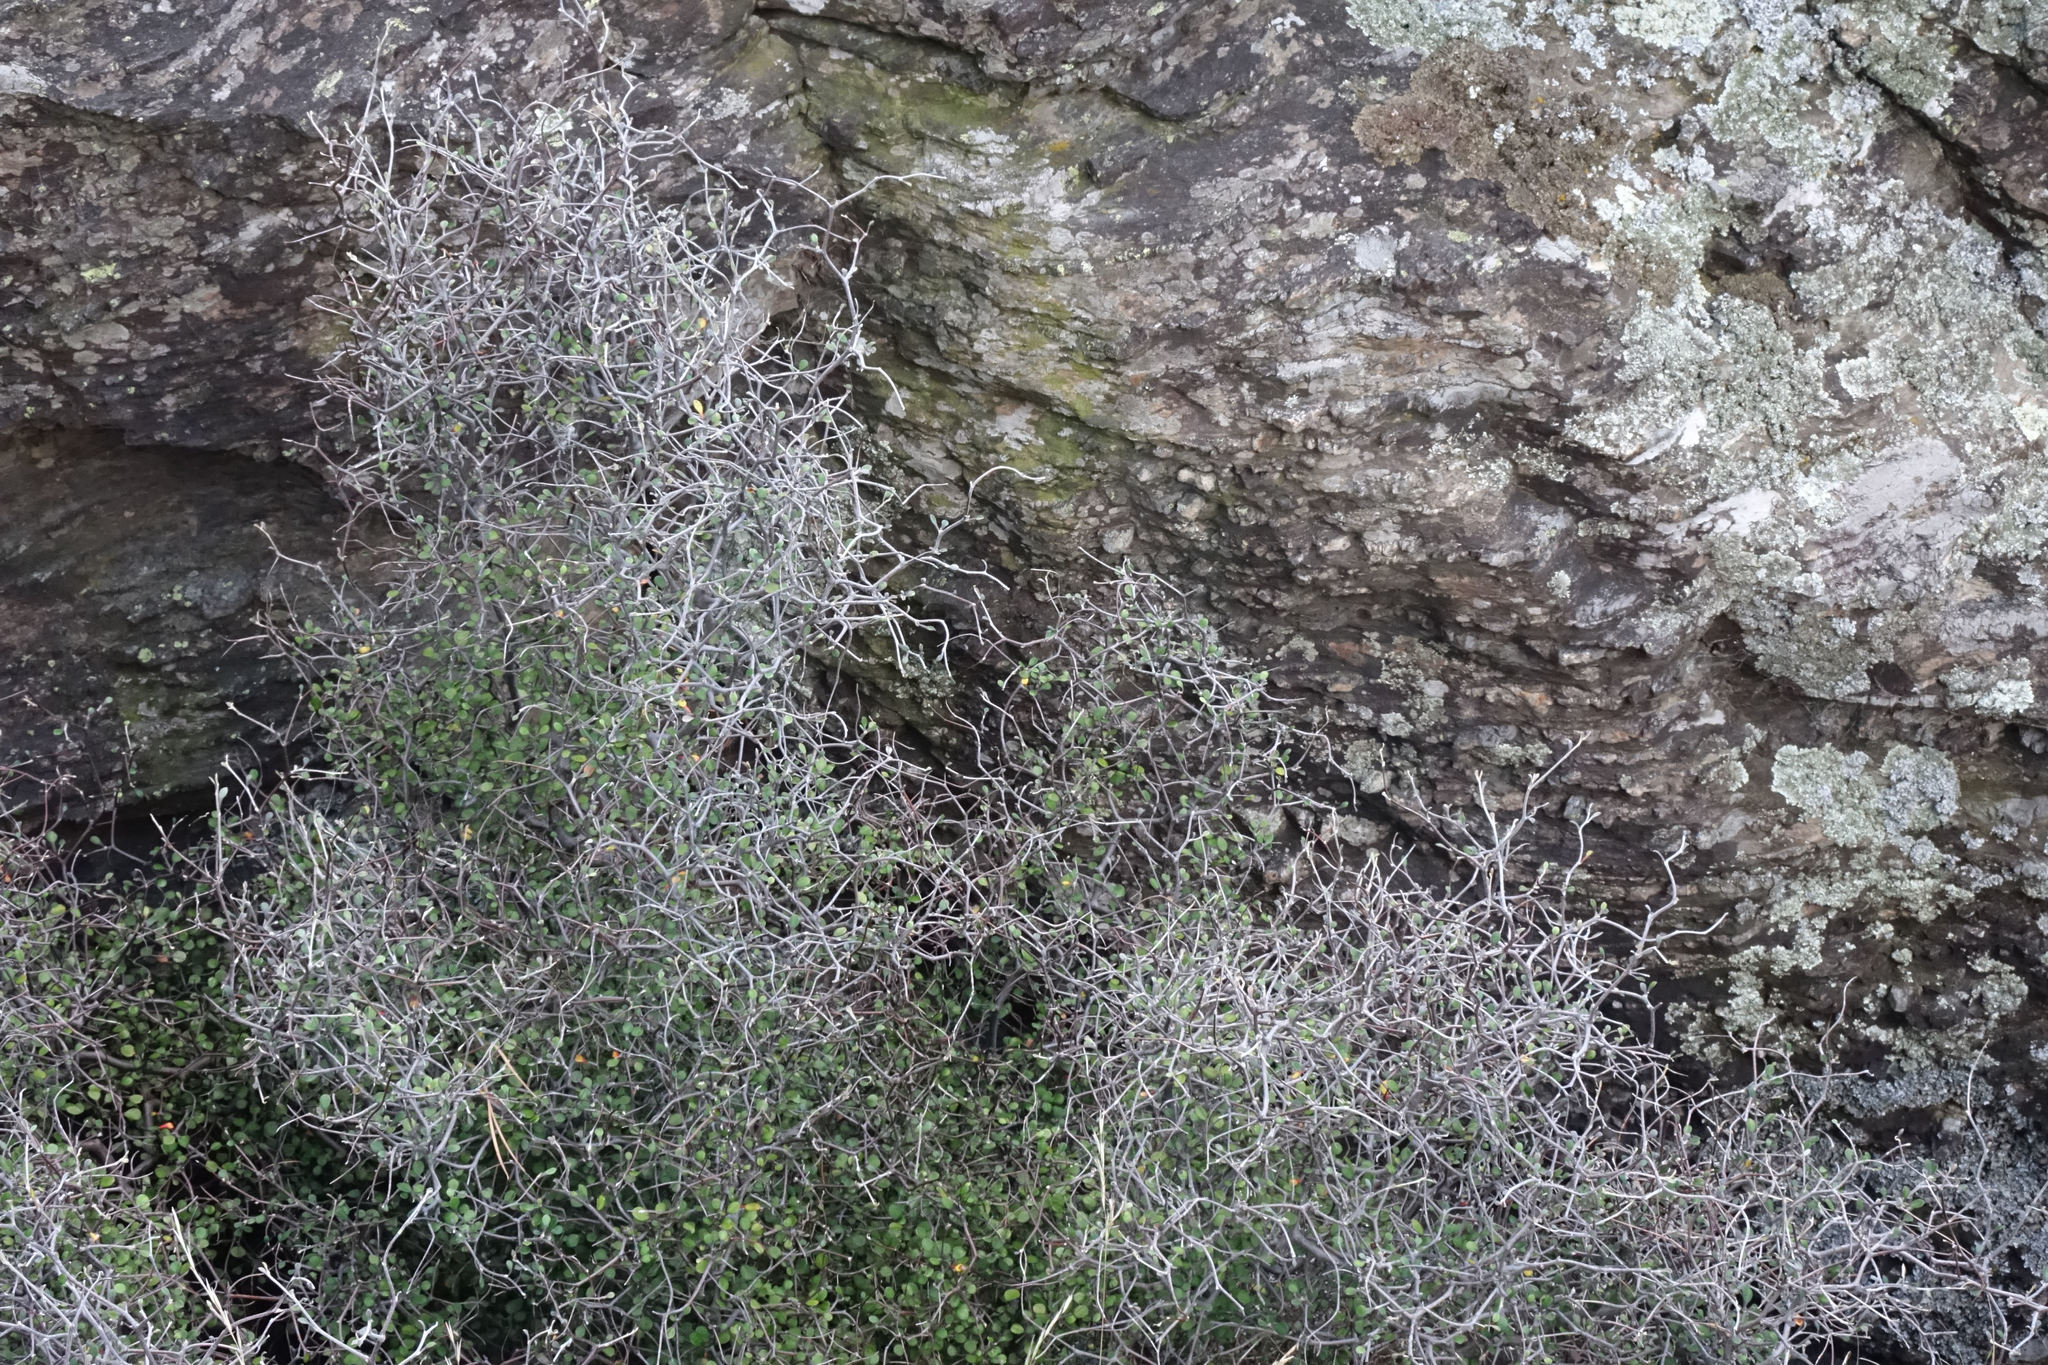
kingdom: Plantae
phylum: Tracheophyta
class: Magnoliopsida
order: Asterales
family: Argophyllaceae
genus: Corokia
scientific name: Corokia cotoneaster
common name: Wire nettingbush
